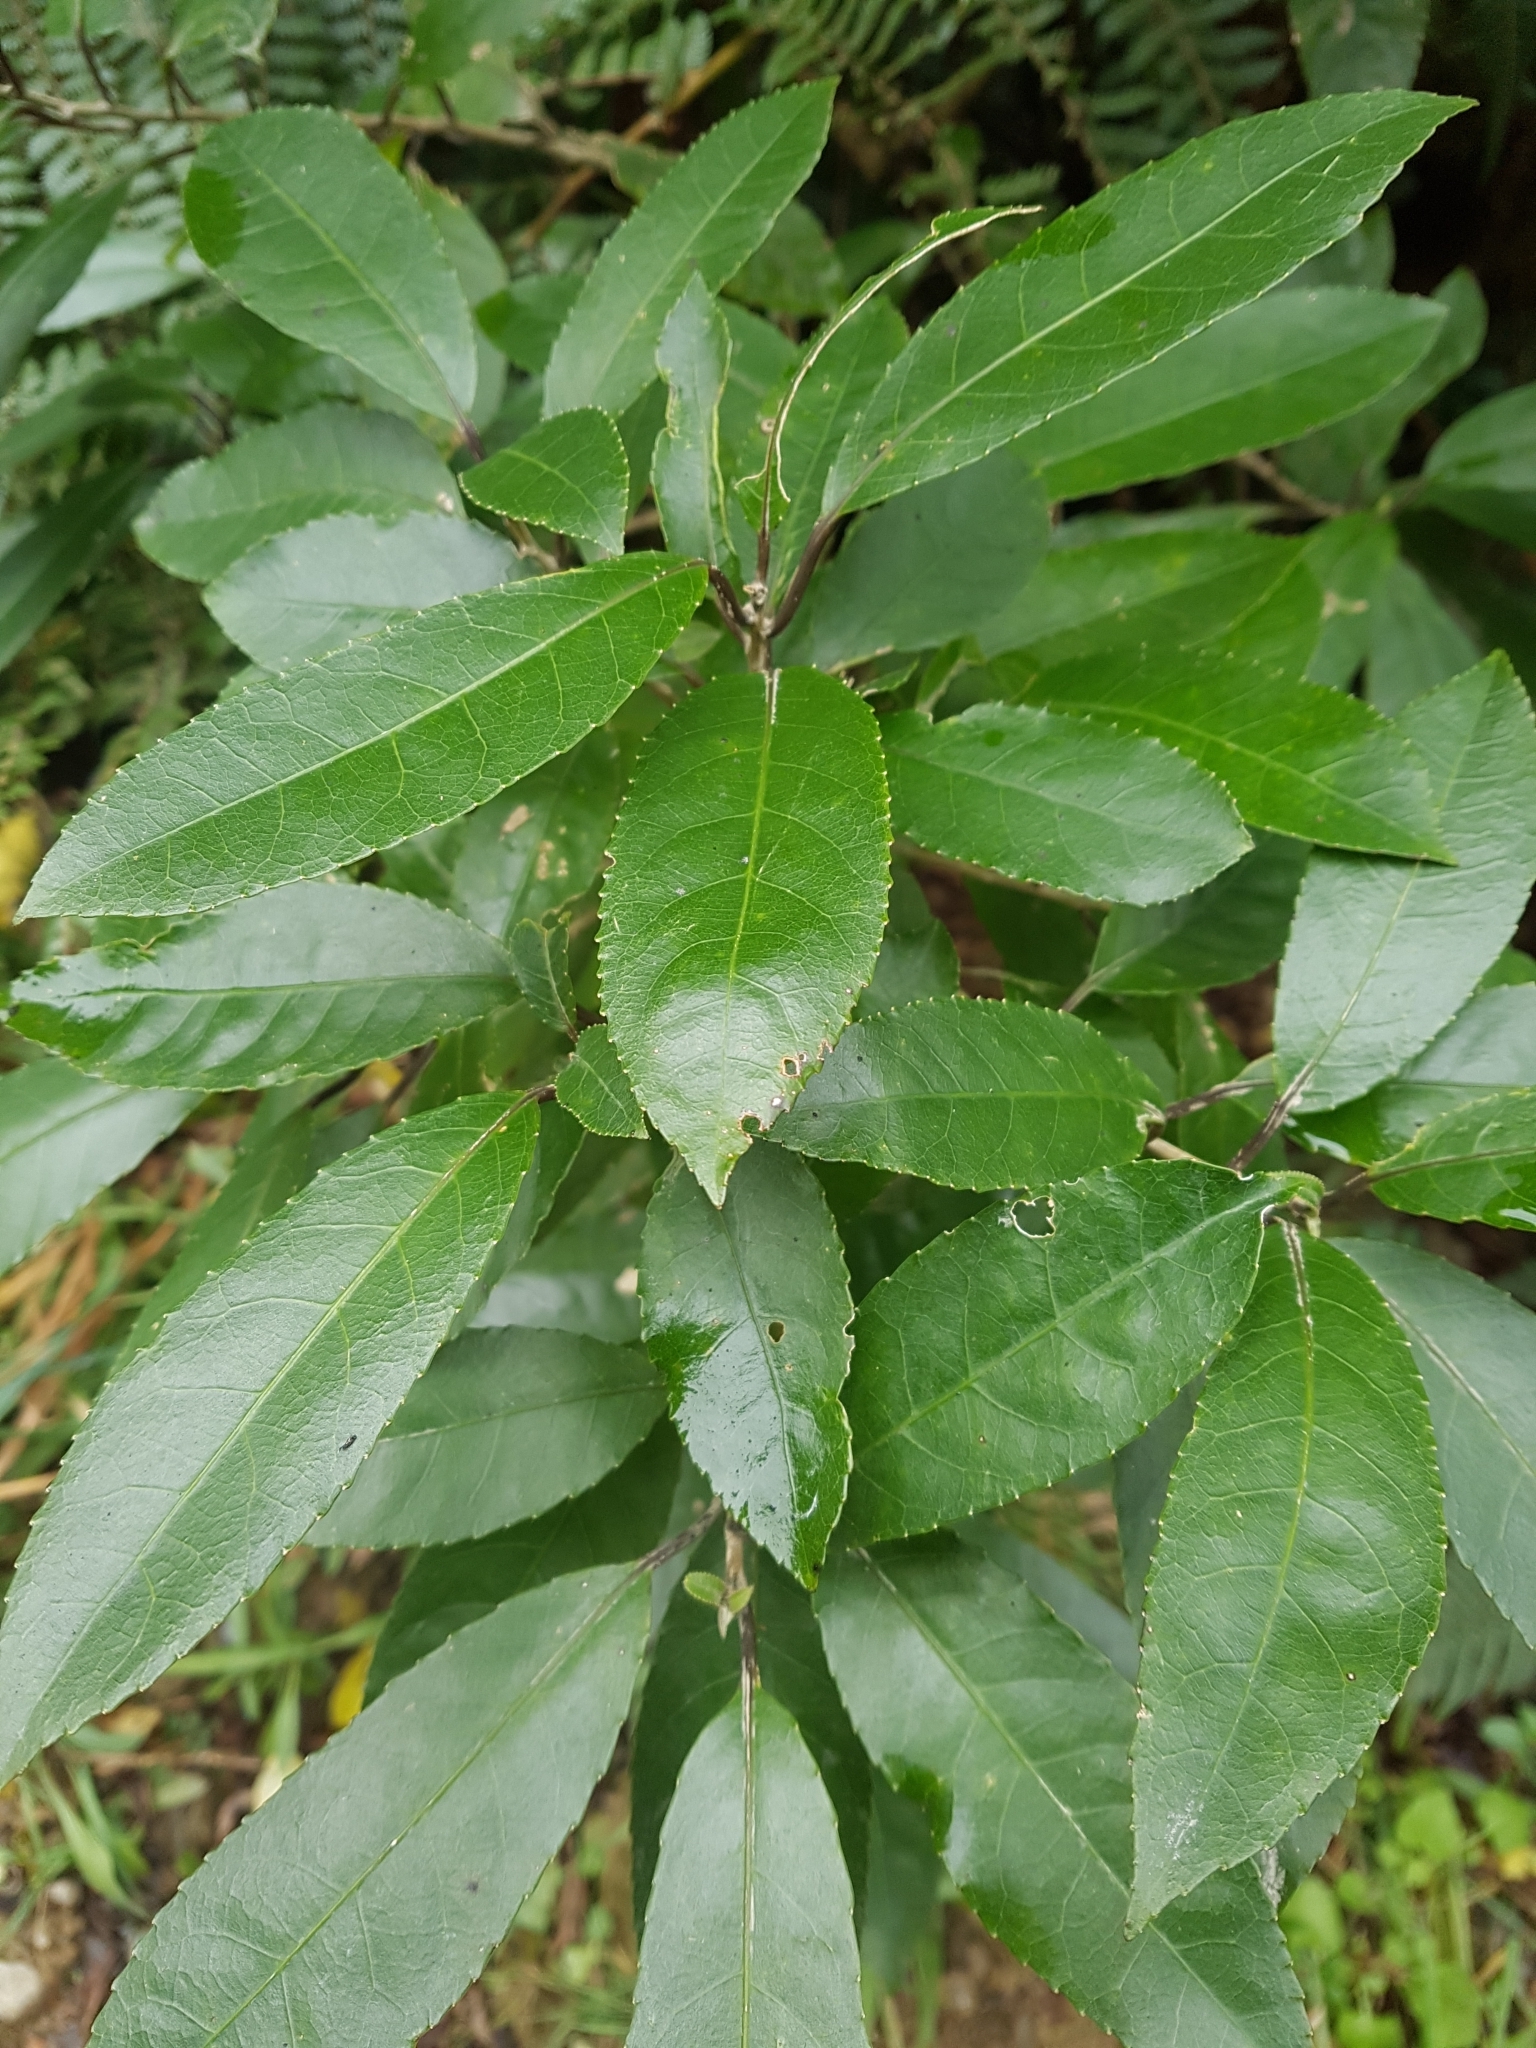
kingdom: Plantae
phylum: Tracheophyta
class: Magnoliopsida
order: Malpighiales
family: Violaceae
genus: Melicytus
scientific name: Melicytus ramiflorus
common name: Mahoe
